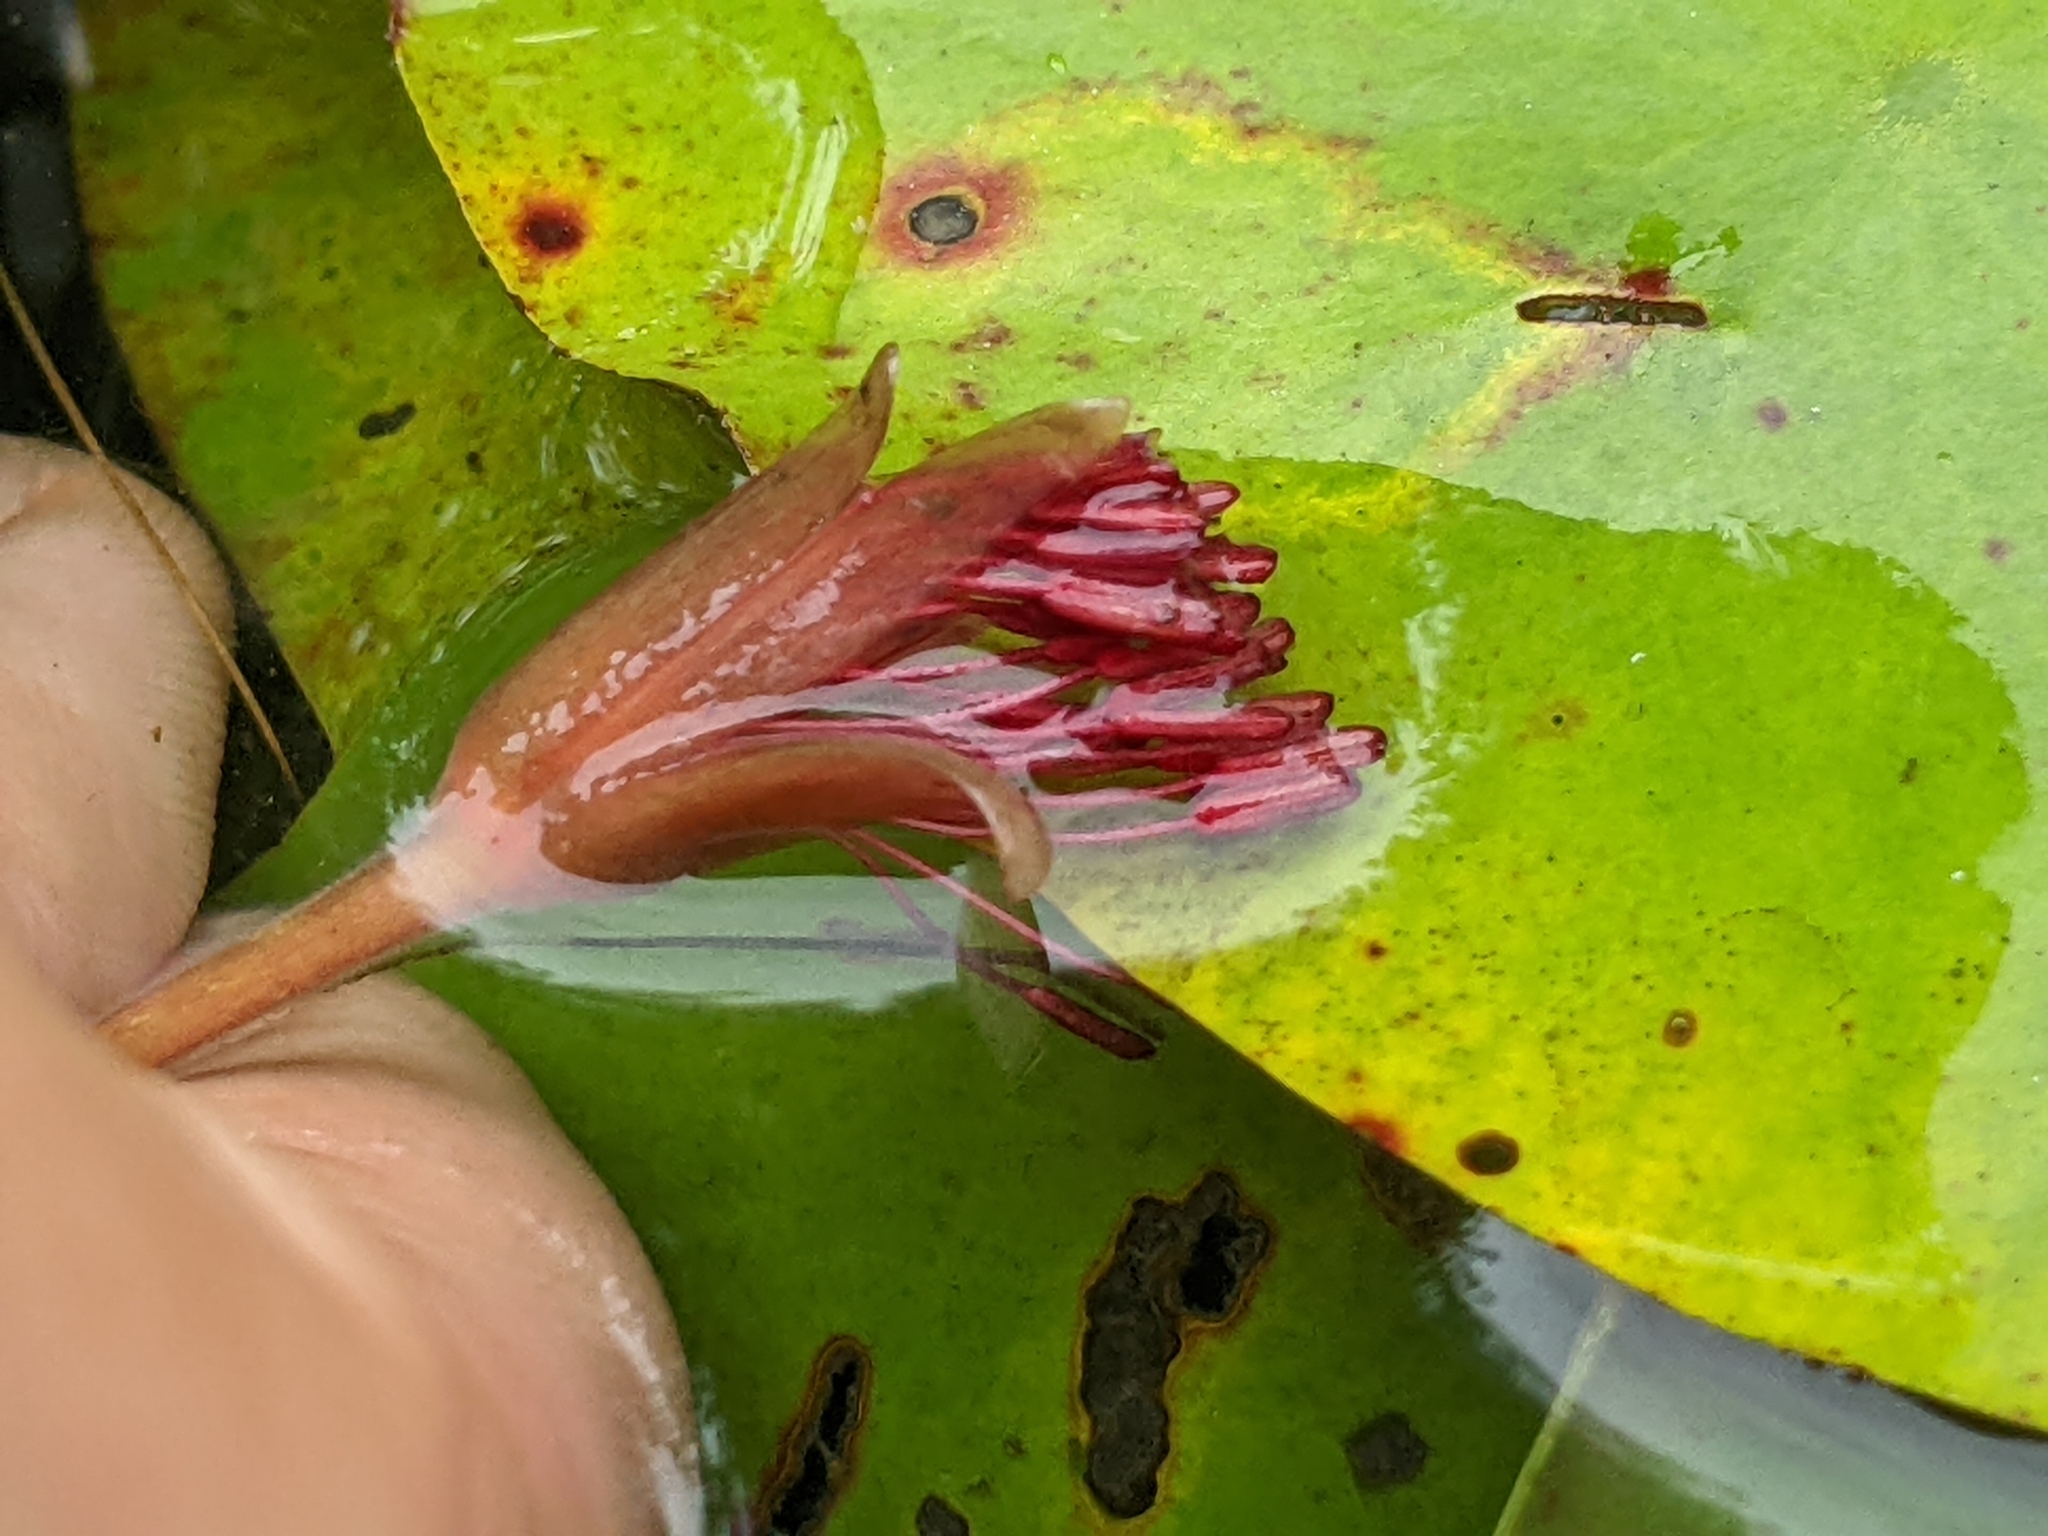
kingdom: Plantae
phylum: Tracheophyta
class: Magnoliopsida
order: Nymphaeales
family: Cabombaceae
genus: Brasenia
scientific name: Brasenia schreberi
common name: Water-shield
